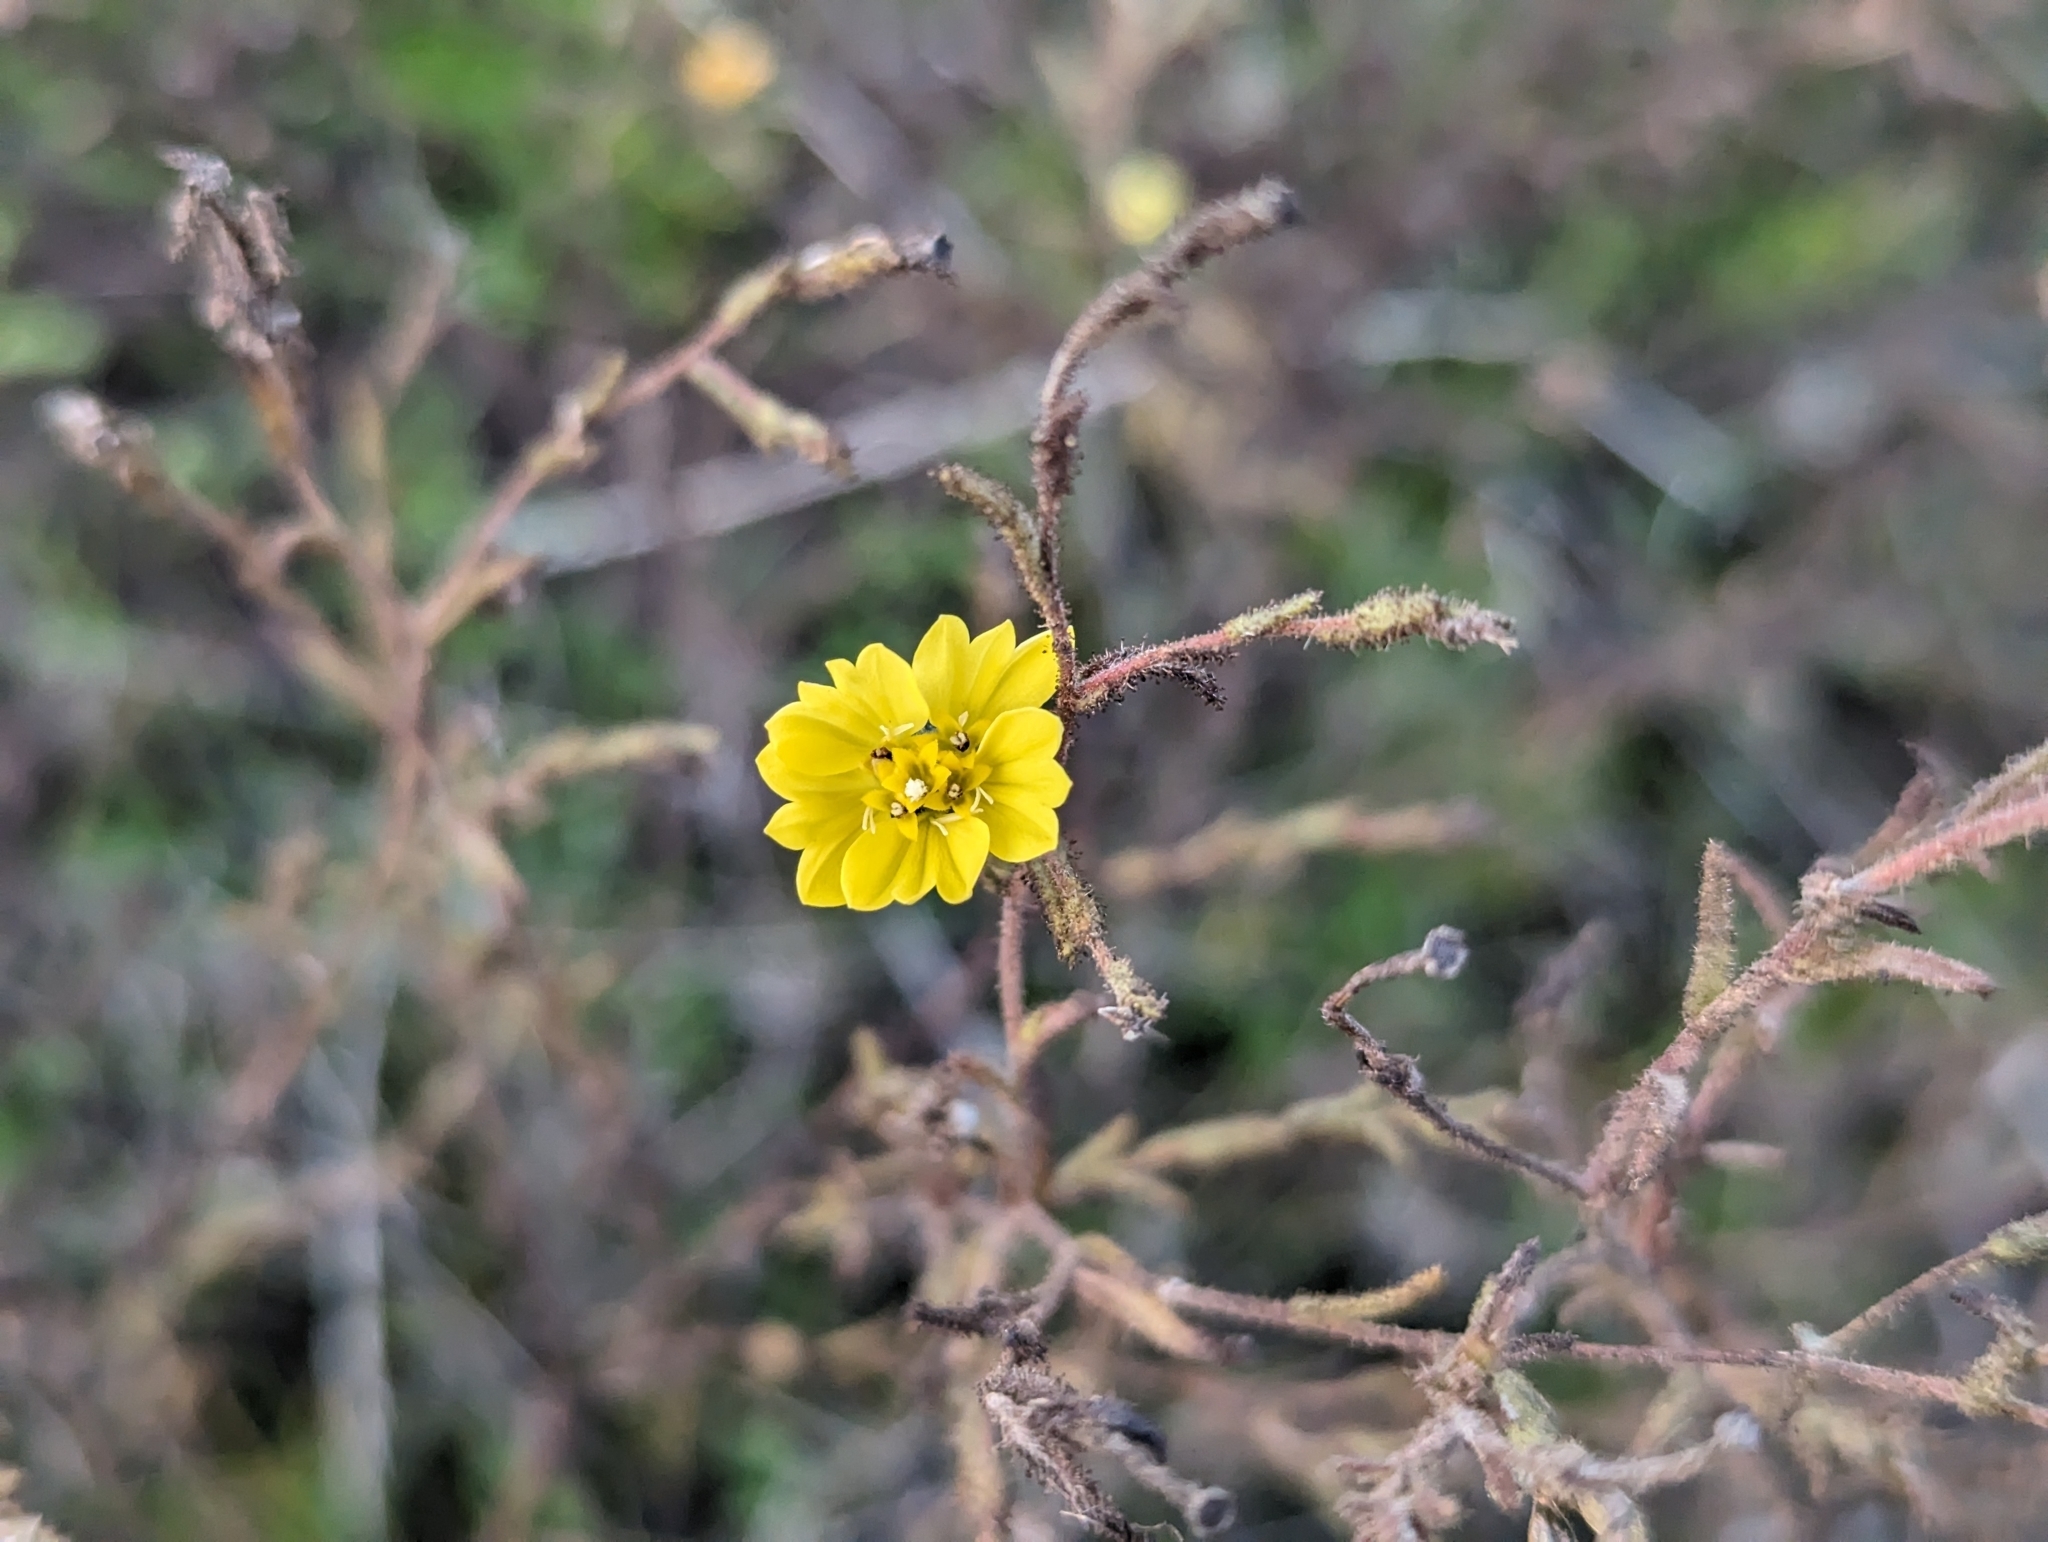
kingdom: Plantae
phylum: Tracheophyta
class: Magnoliopsida
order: Asterales
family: Asteraceae
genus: Hemizonia
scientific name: Hemizonia congesta
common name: Hayfield tarweed
